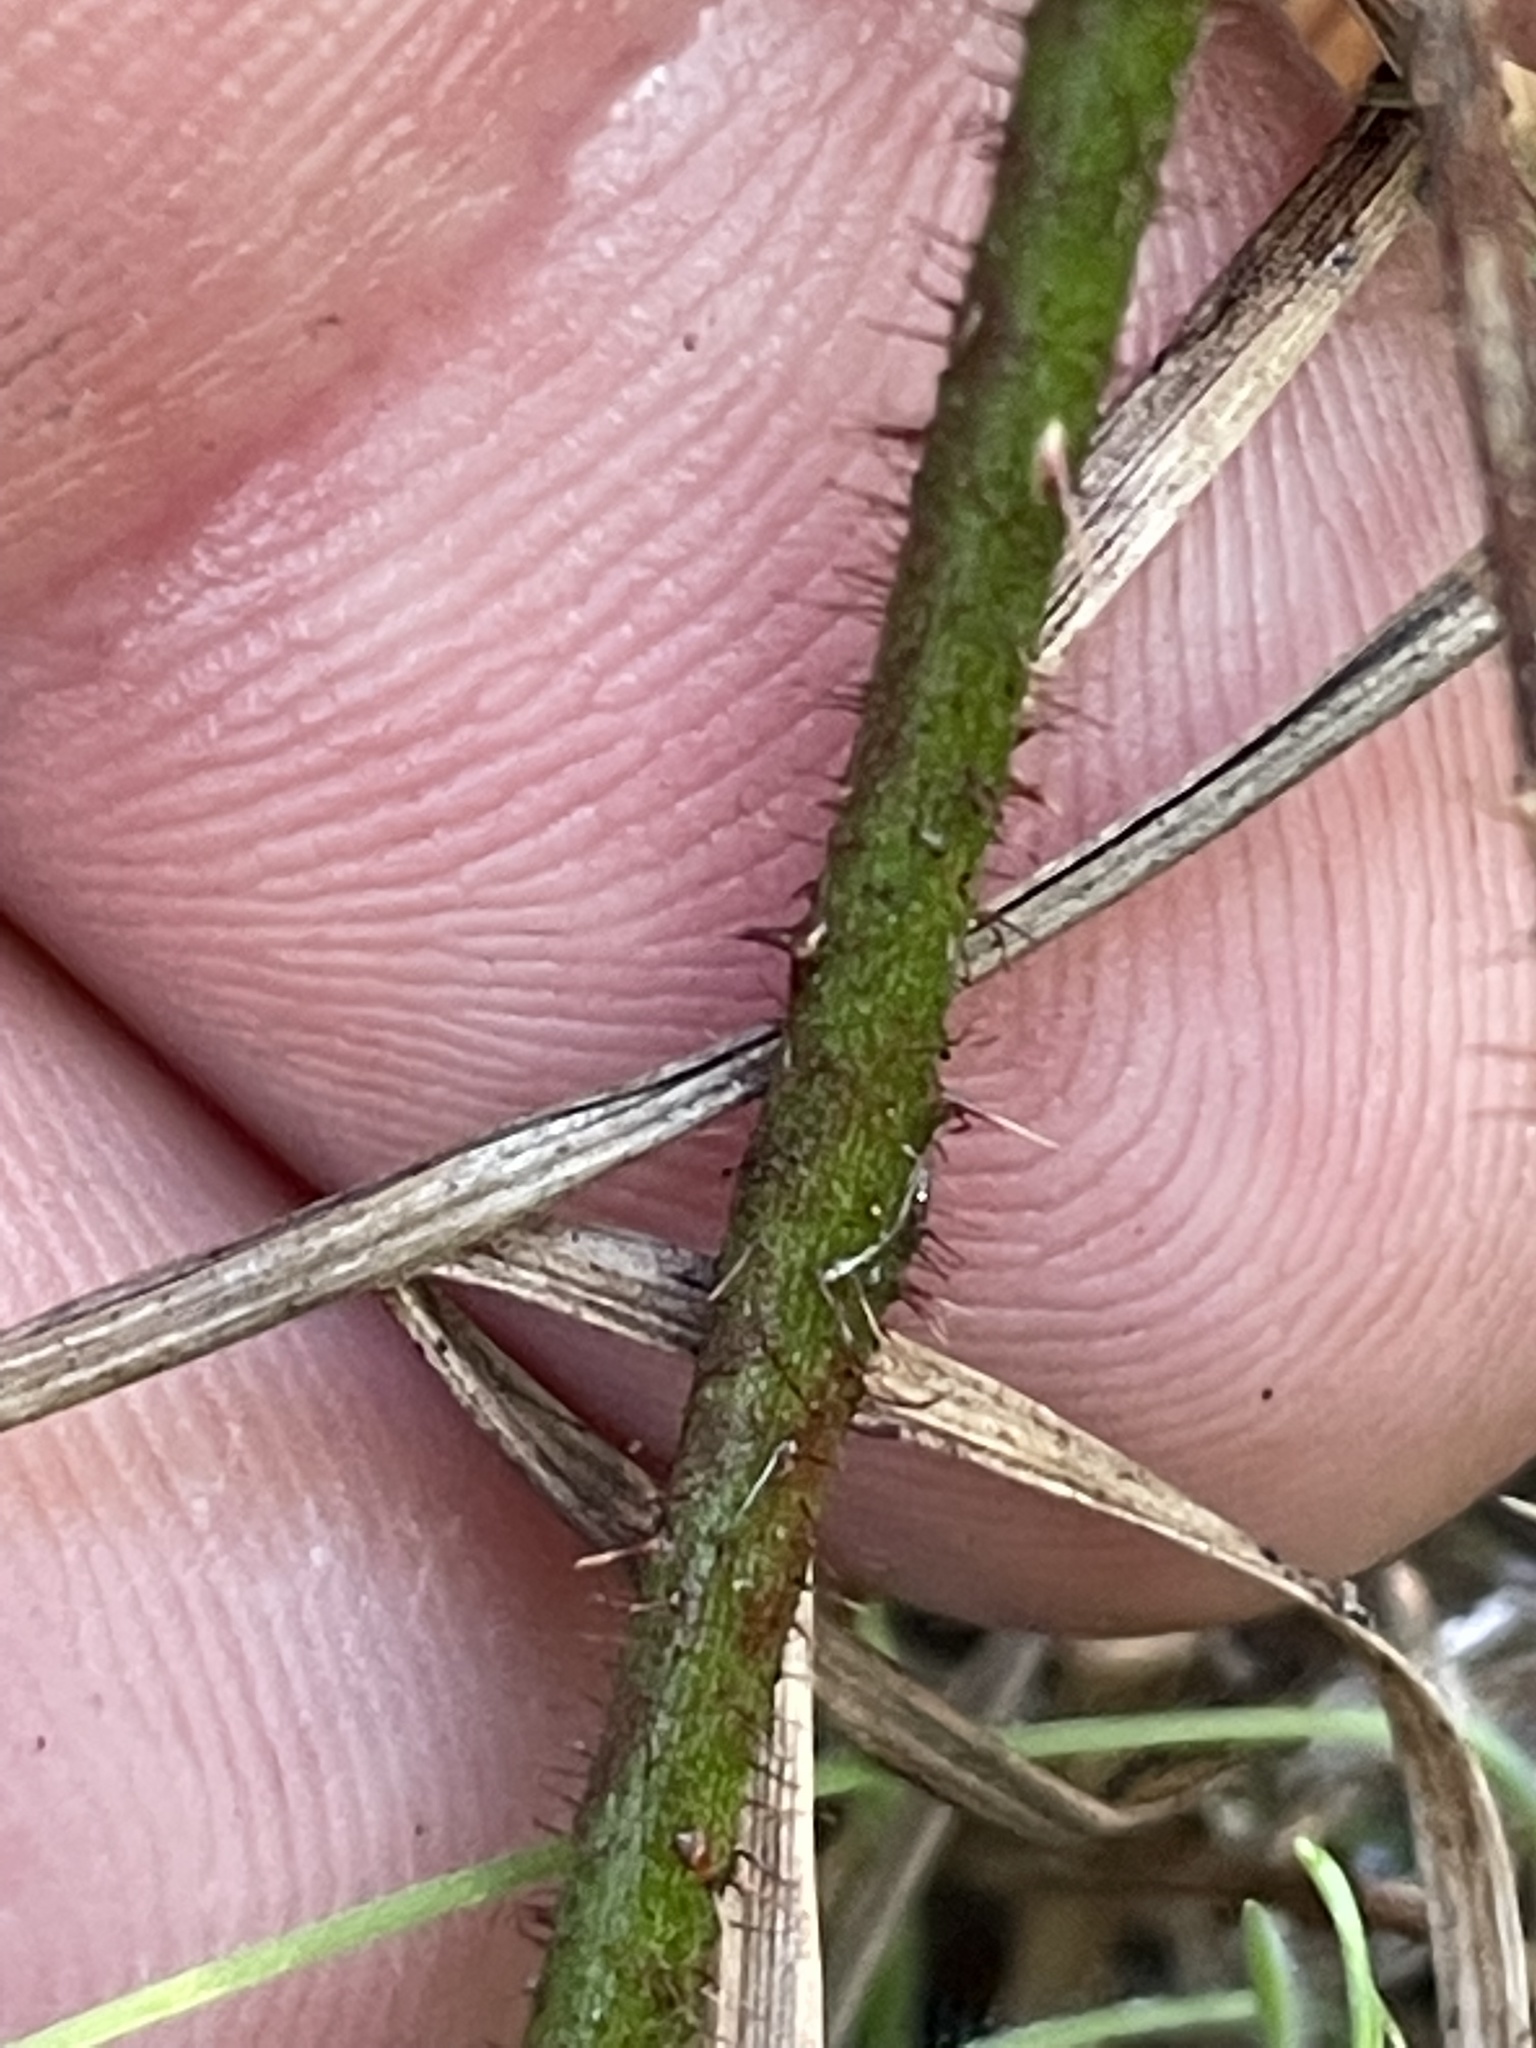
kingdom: Plantae
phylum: Tracheophyta
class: Magnoliopsida
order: Rosales
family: Rosaceae
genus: Rubus
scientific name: Rubus trivialis
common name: Southern dewberry
